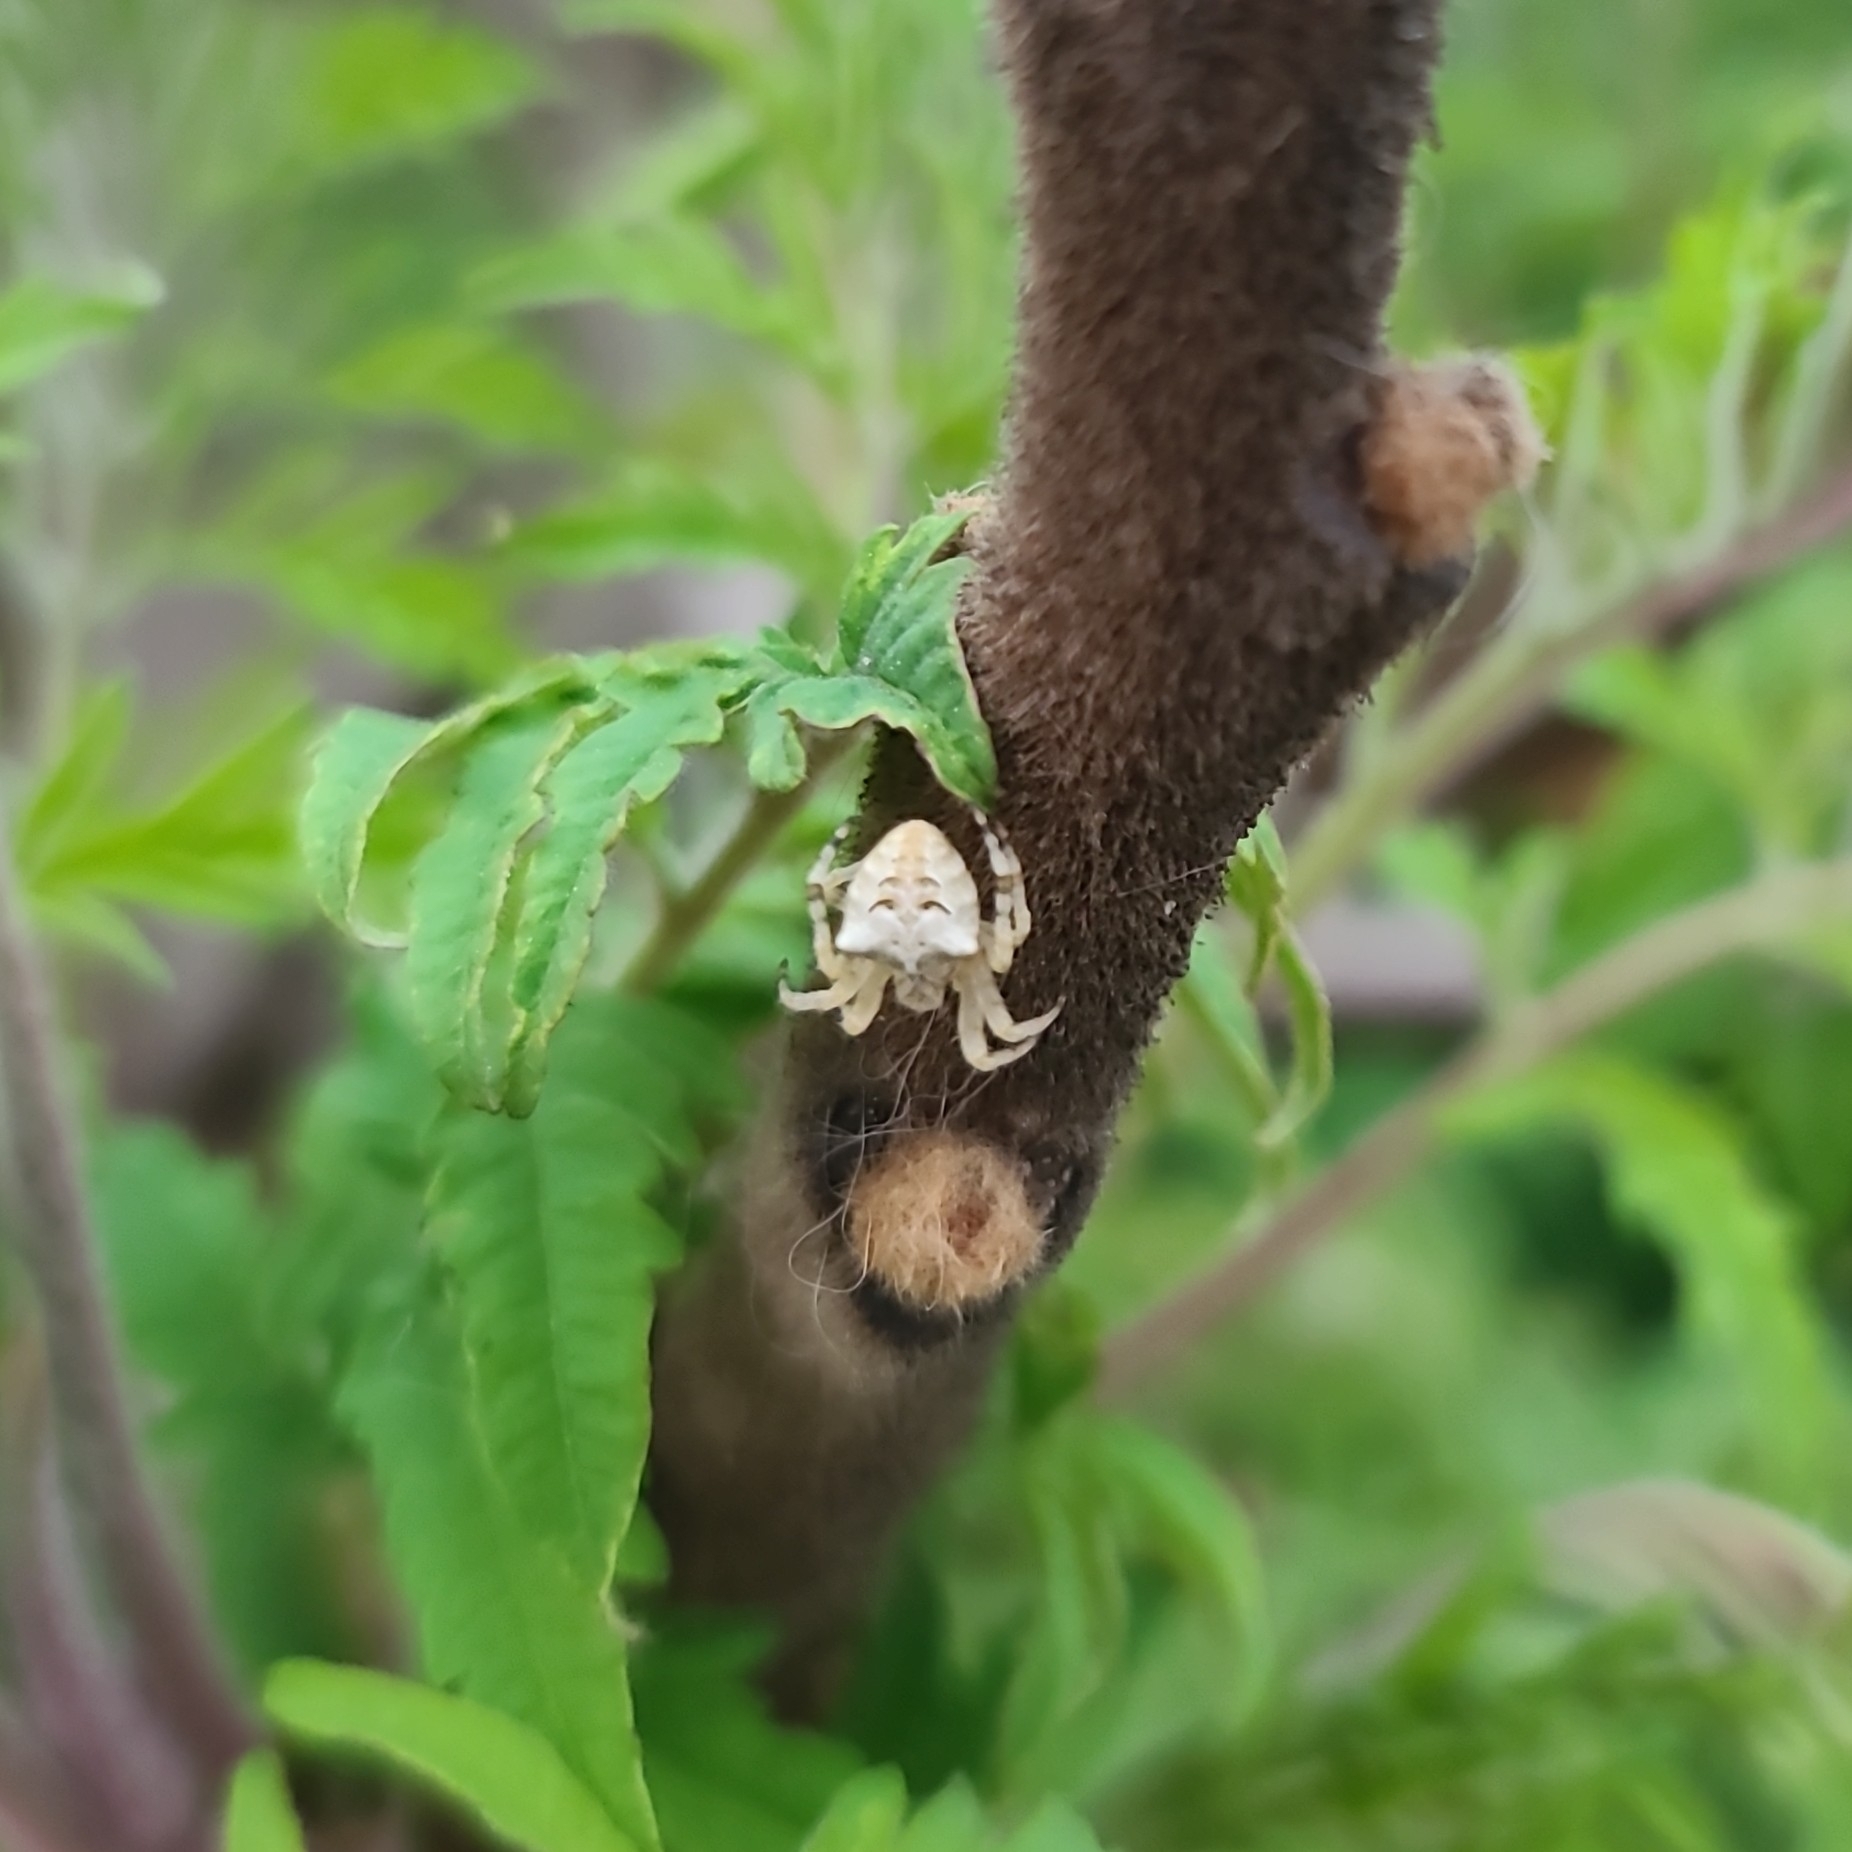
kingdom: Animalia
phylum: Arthropoda
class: Arachnida
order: Araneae
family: Araneidae
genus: Araneus
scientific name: Araneus gemmoides
